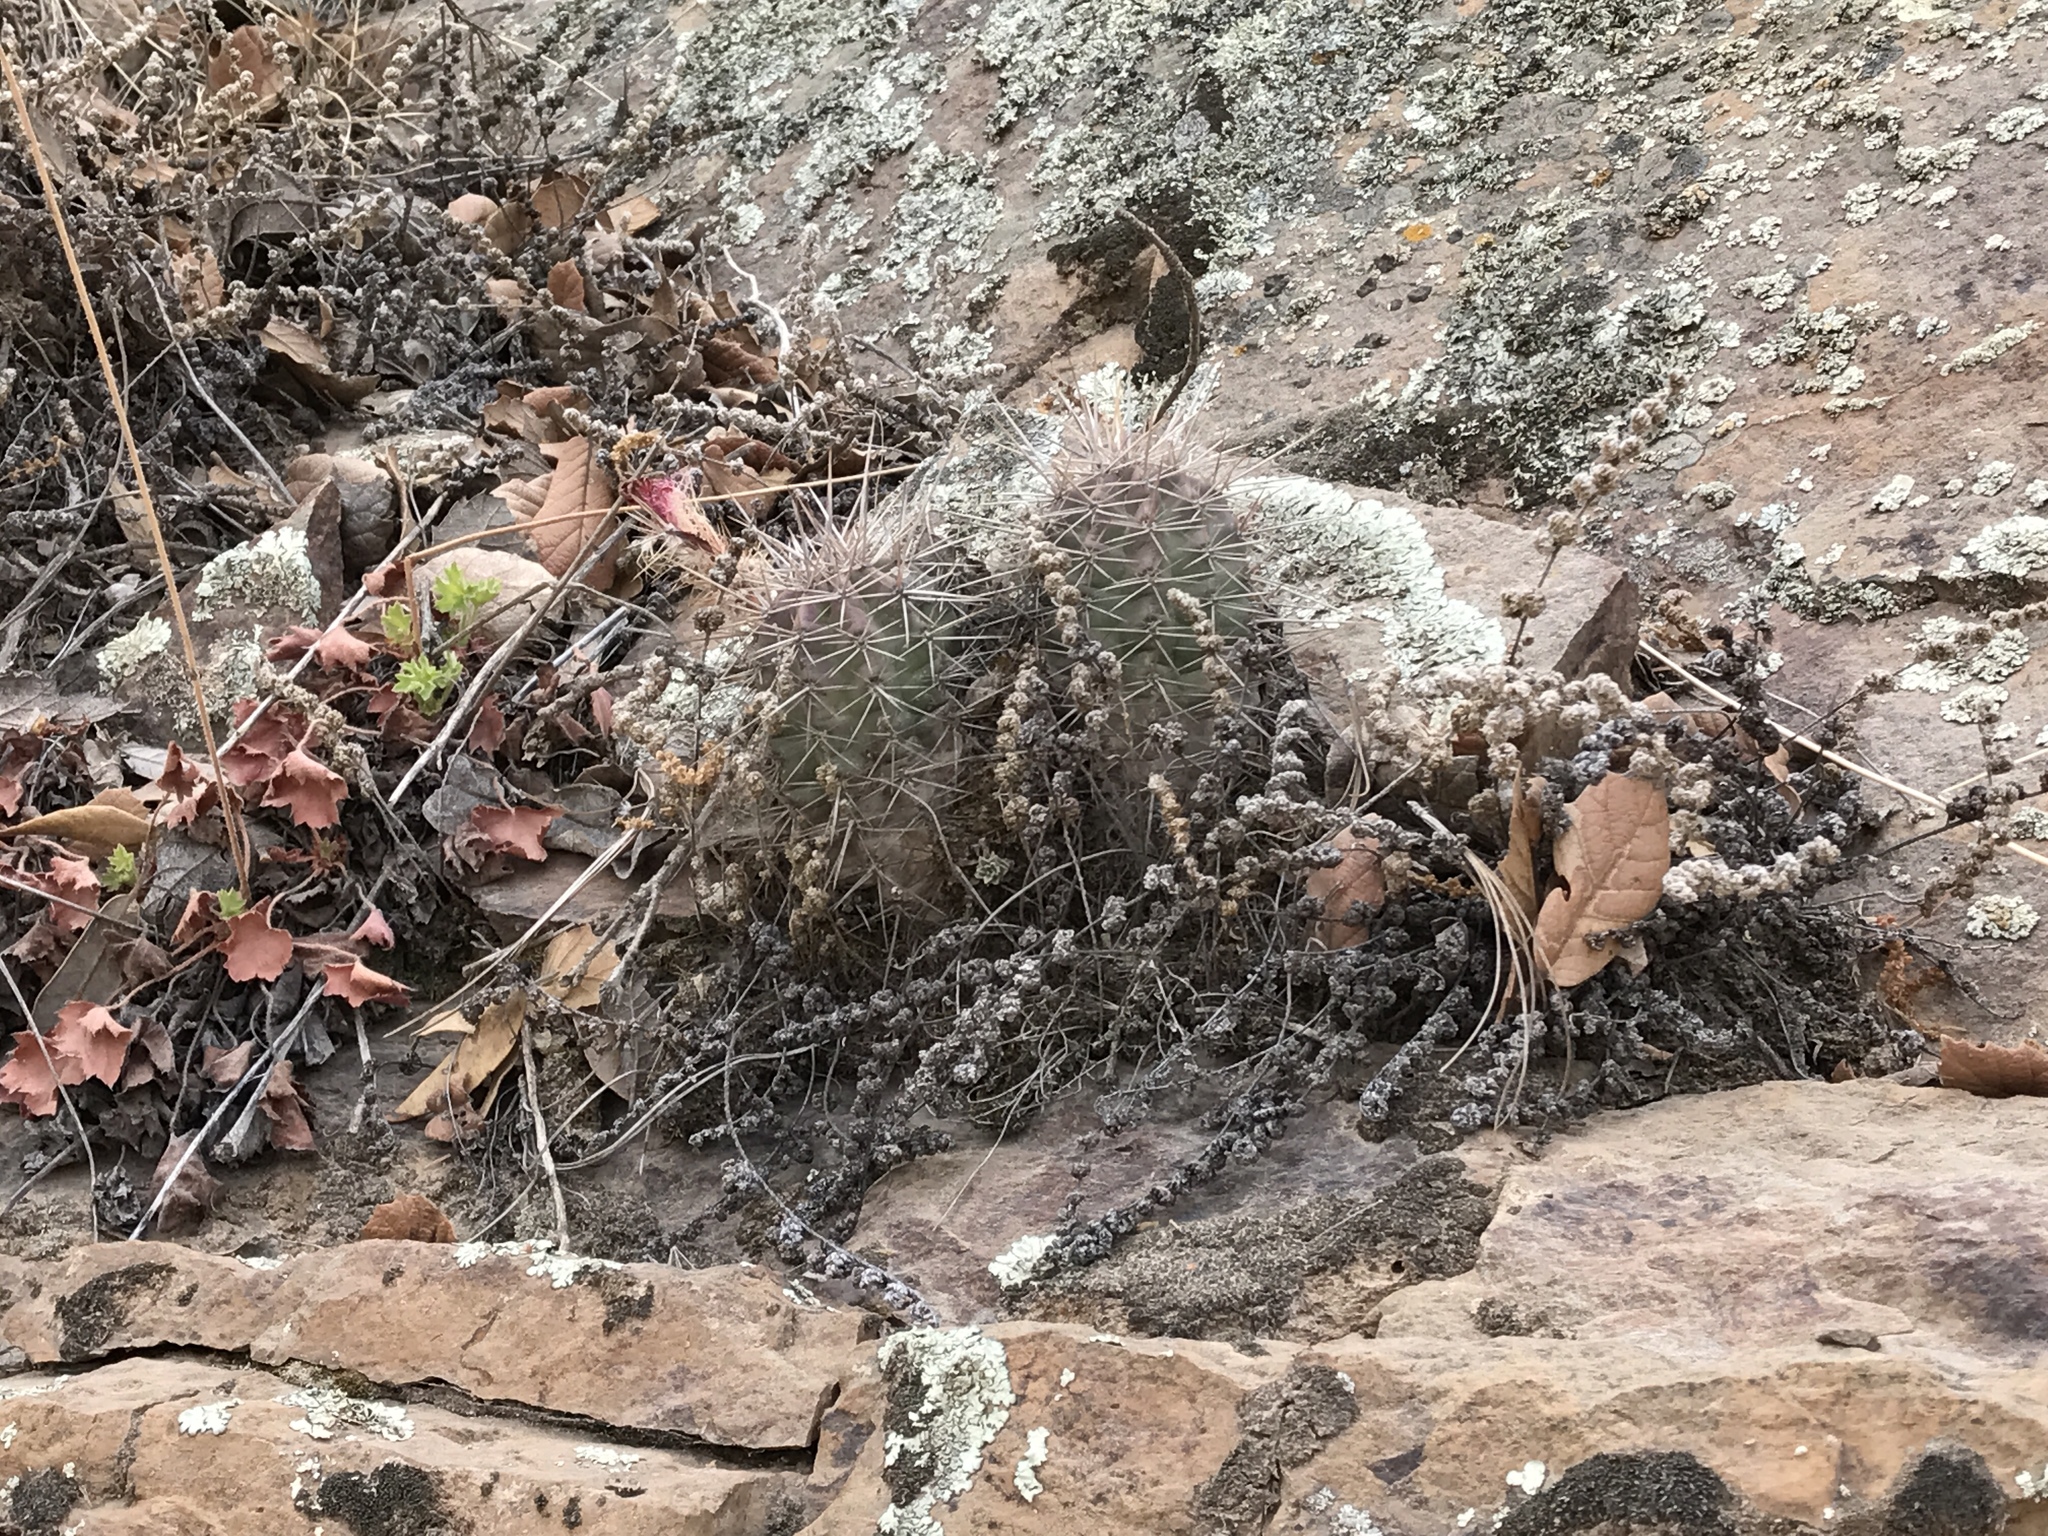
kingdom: Plantae
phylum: Tracheophyta
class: Magnoliopsida
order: Caryophyllales
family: Cactaceae
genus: Echinocereus
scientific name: Echinocereus coccineus
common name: Scarlet hedgehog cactus
